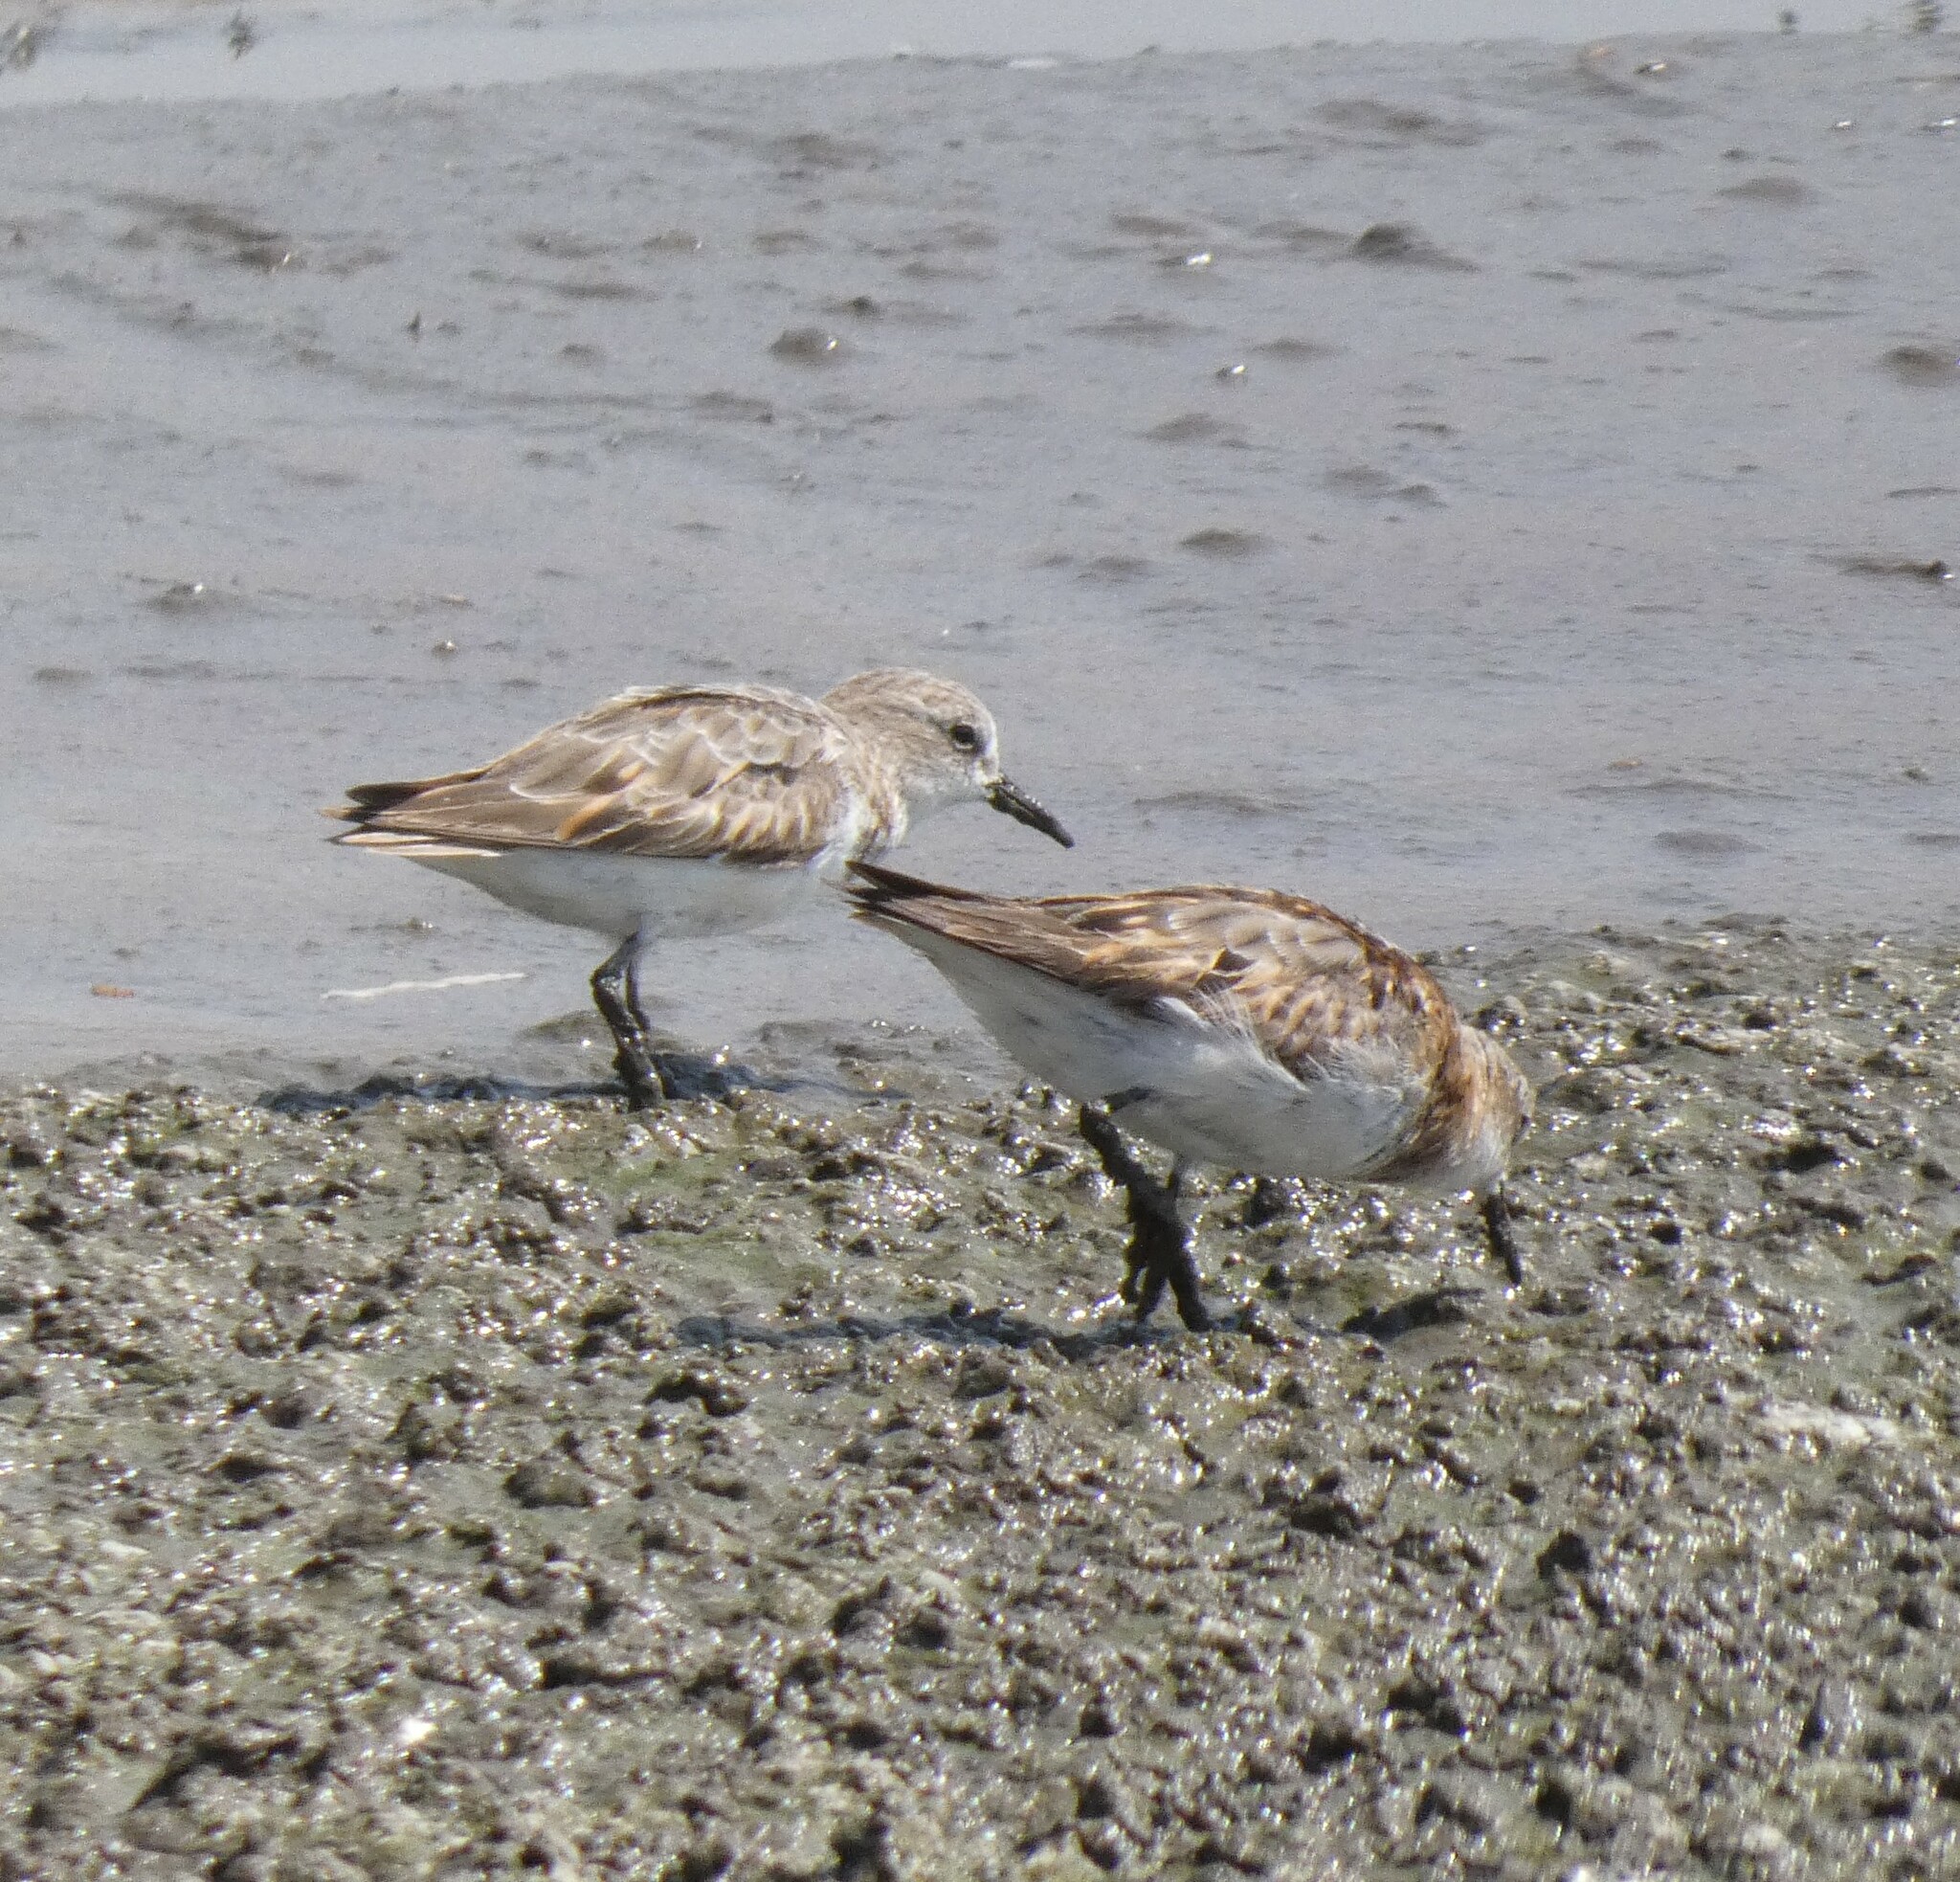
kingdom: Animalia
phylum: Chordata
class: Aves
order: Charadriiformes
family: Scolopacidae
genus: Calidris
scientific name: Calidris minuta
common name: Little stint
